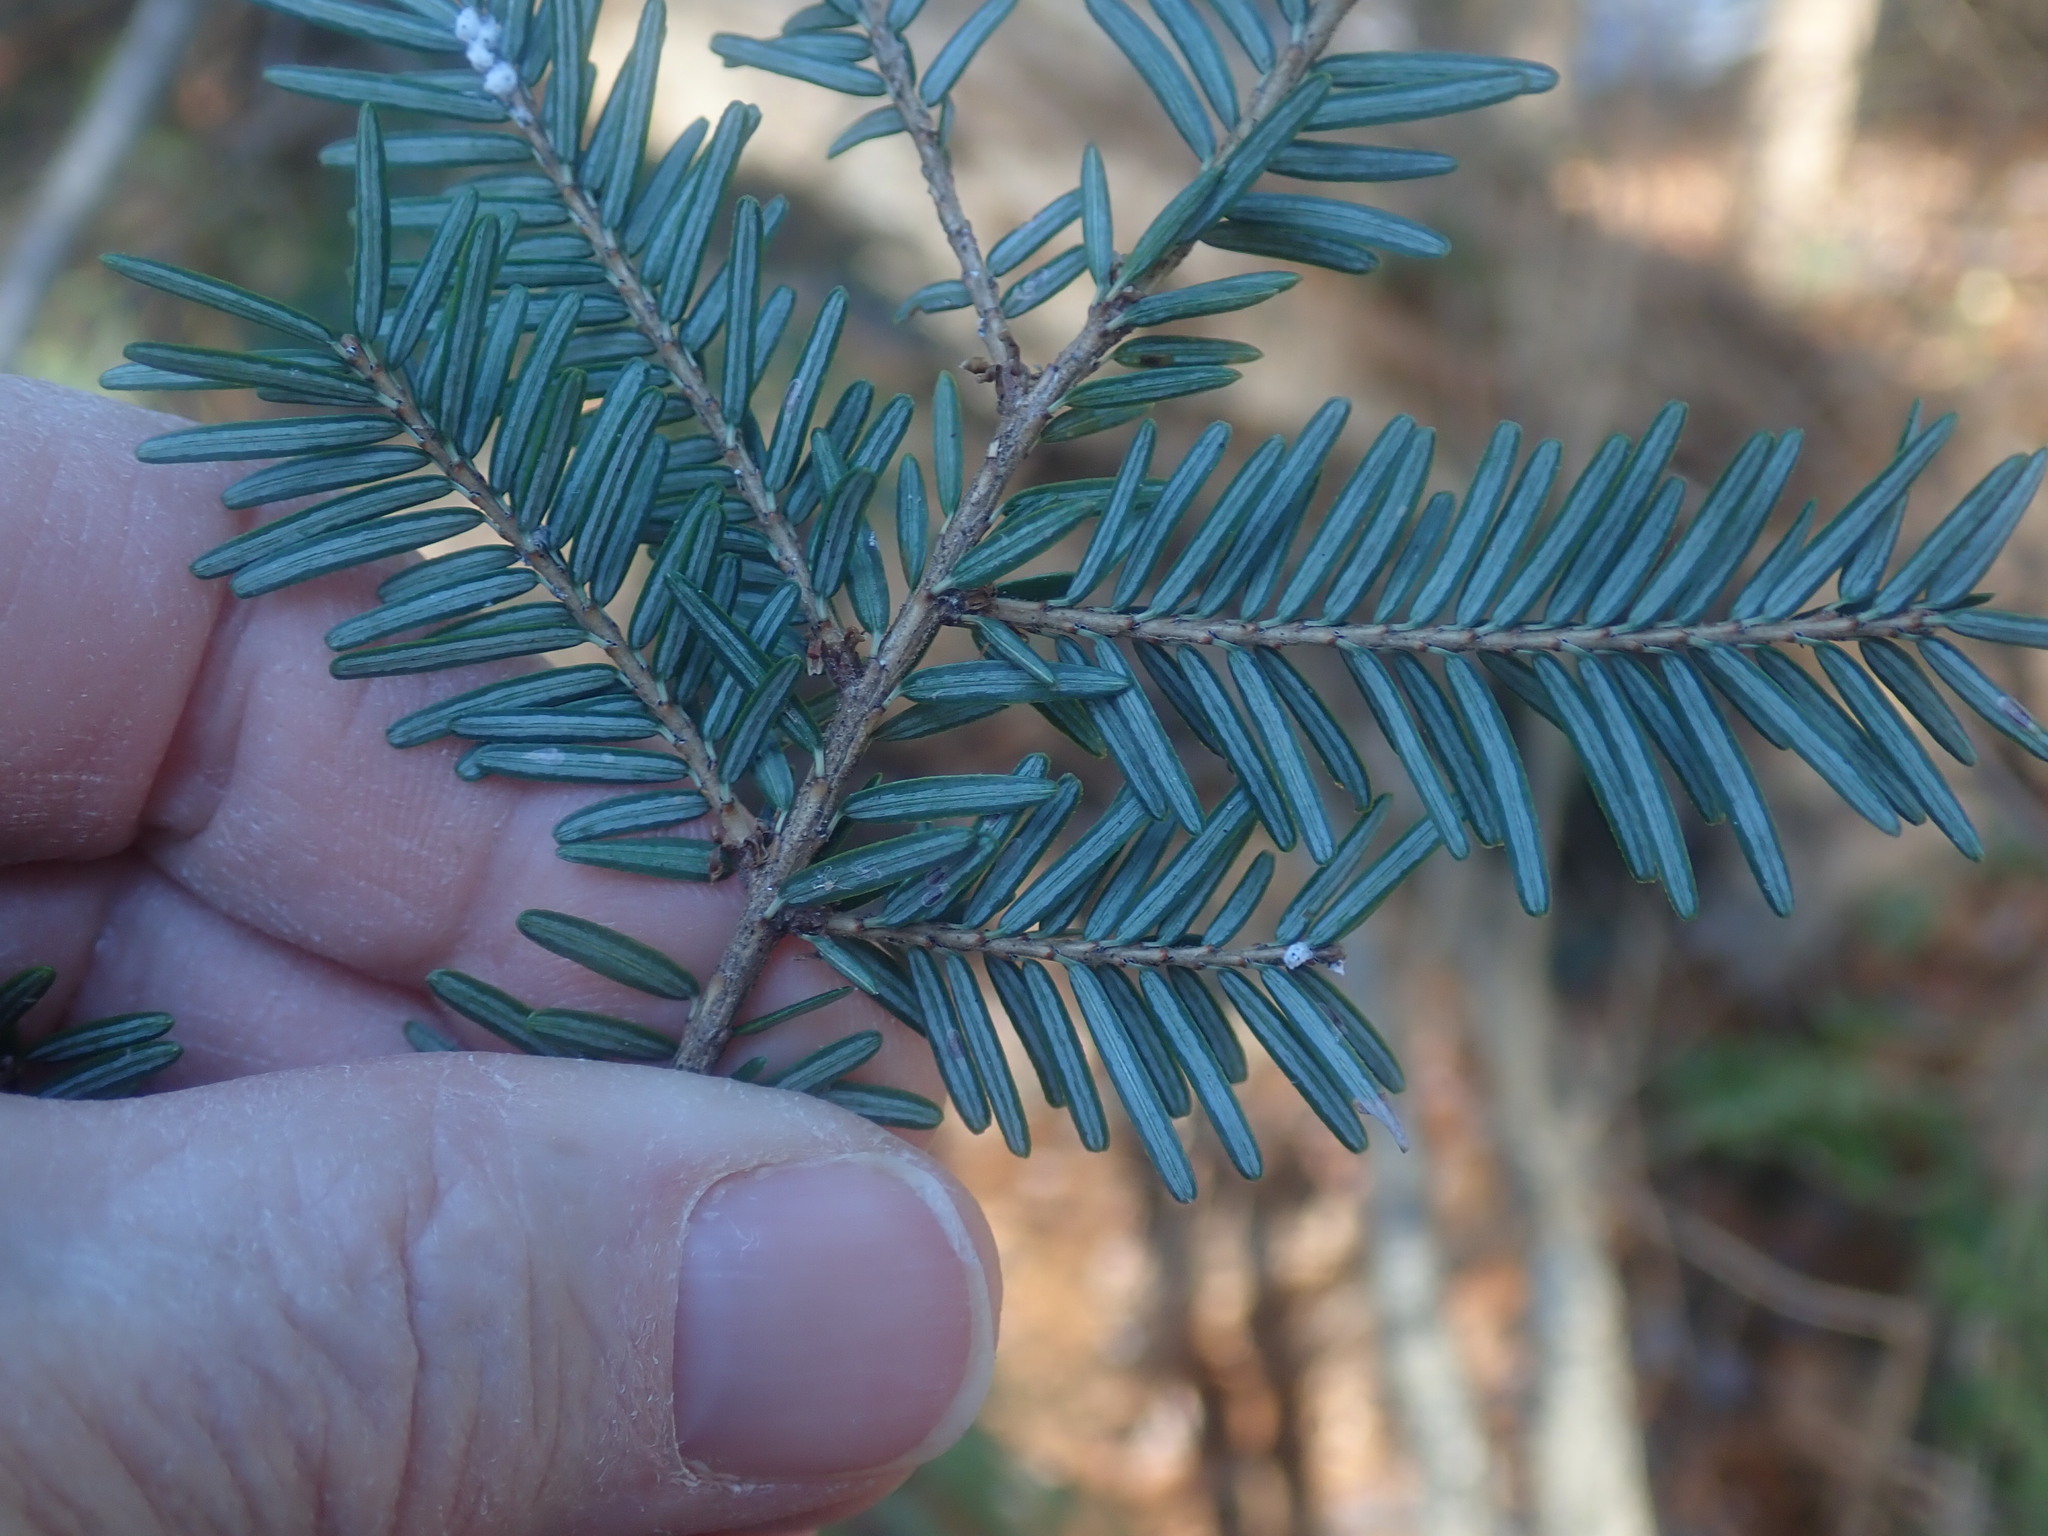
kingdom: Plantae
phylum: Tracheophyta
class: Pinopsida
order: Pinales
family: Pinaceae
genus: Tsuga
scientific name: Tsuga canadensis
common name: Eastern hemlock
